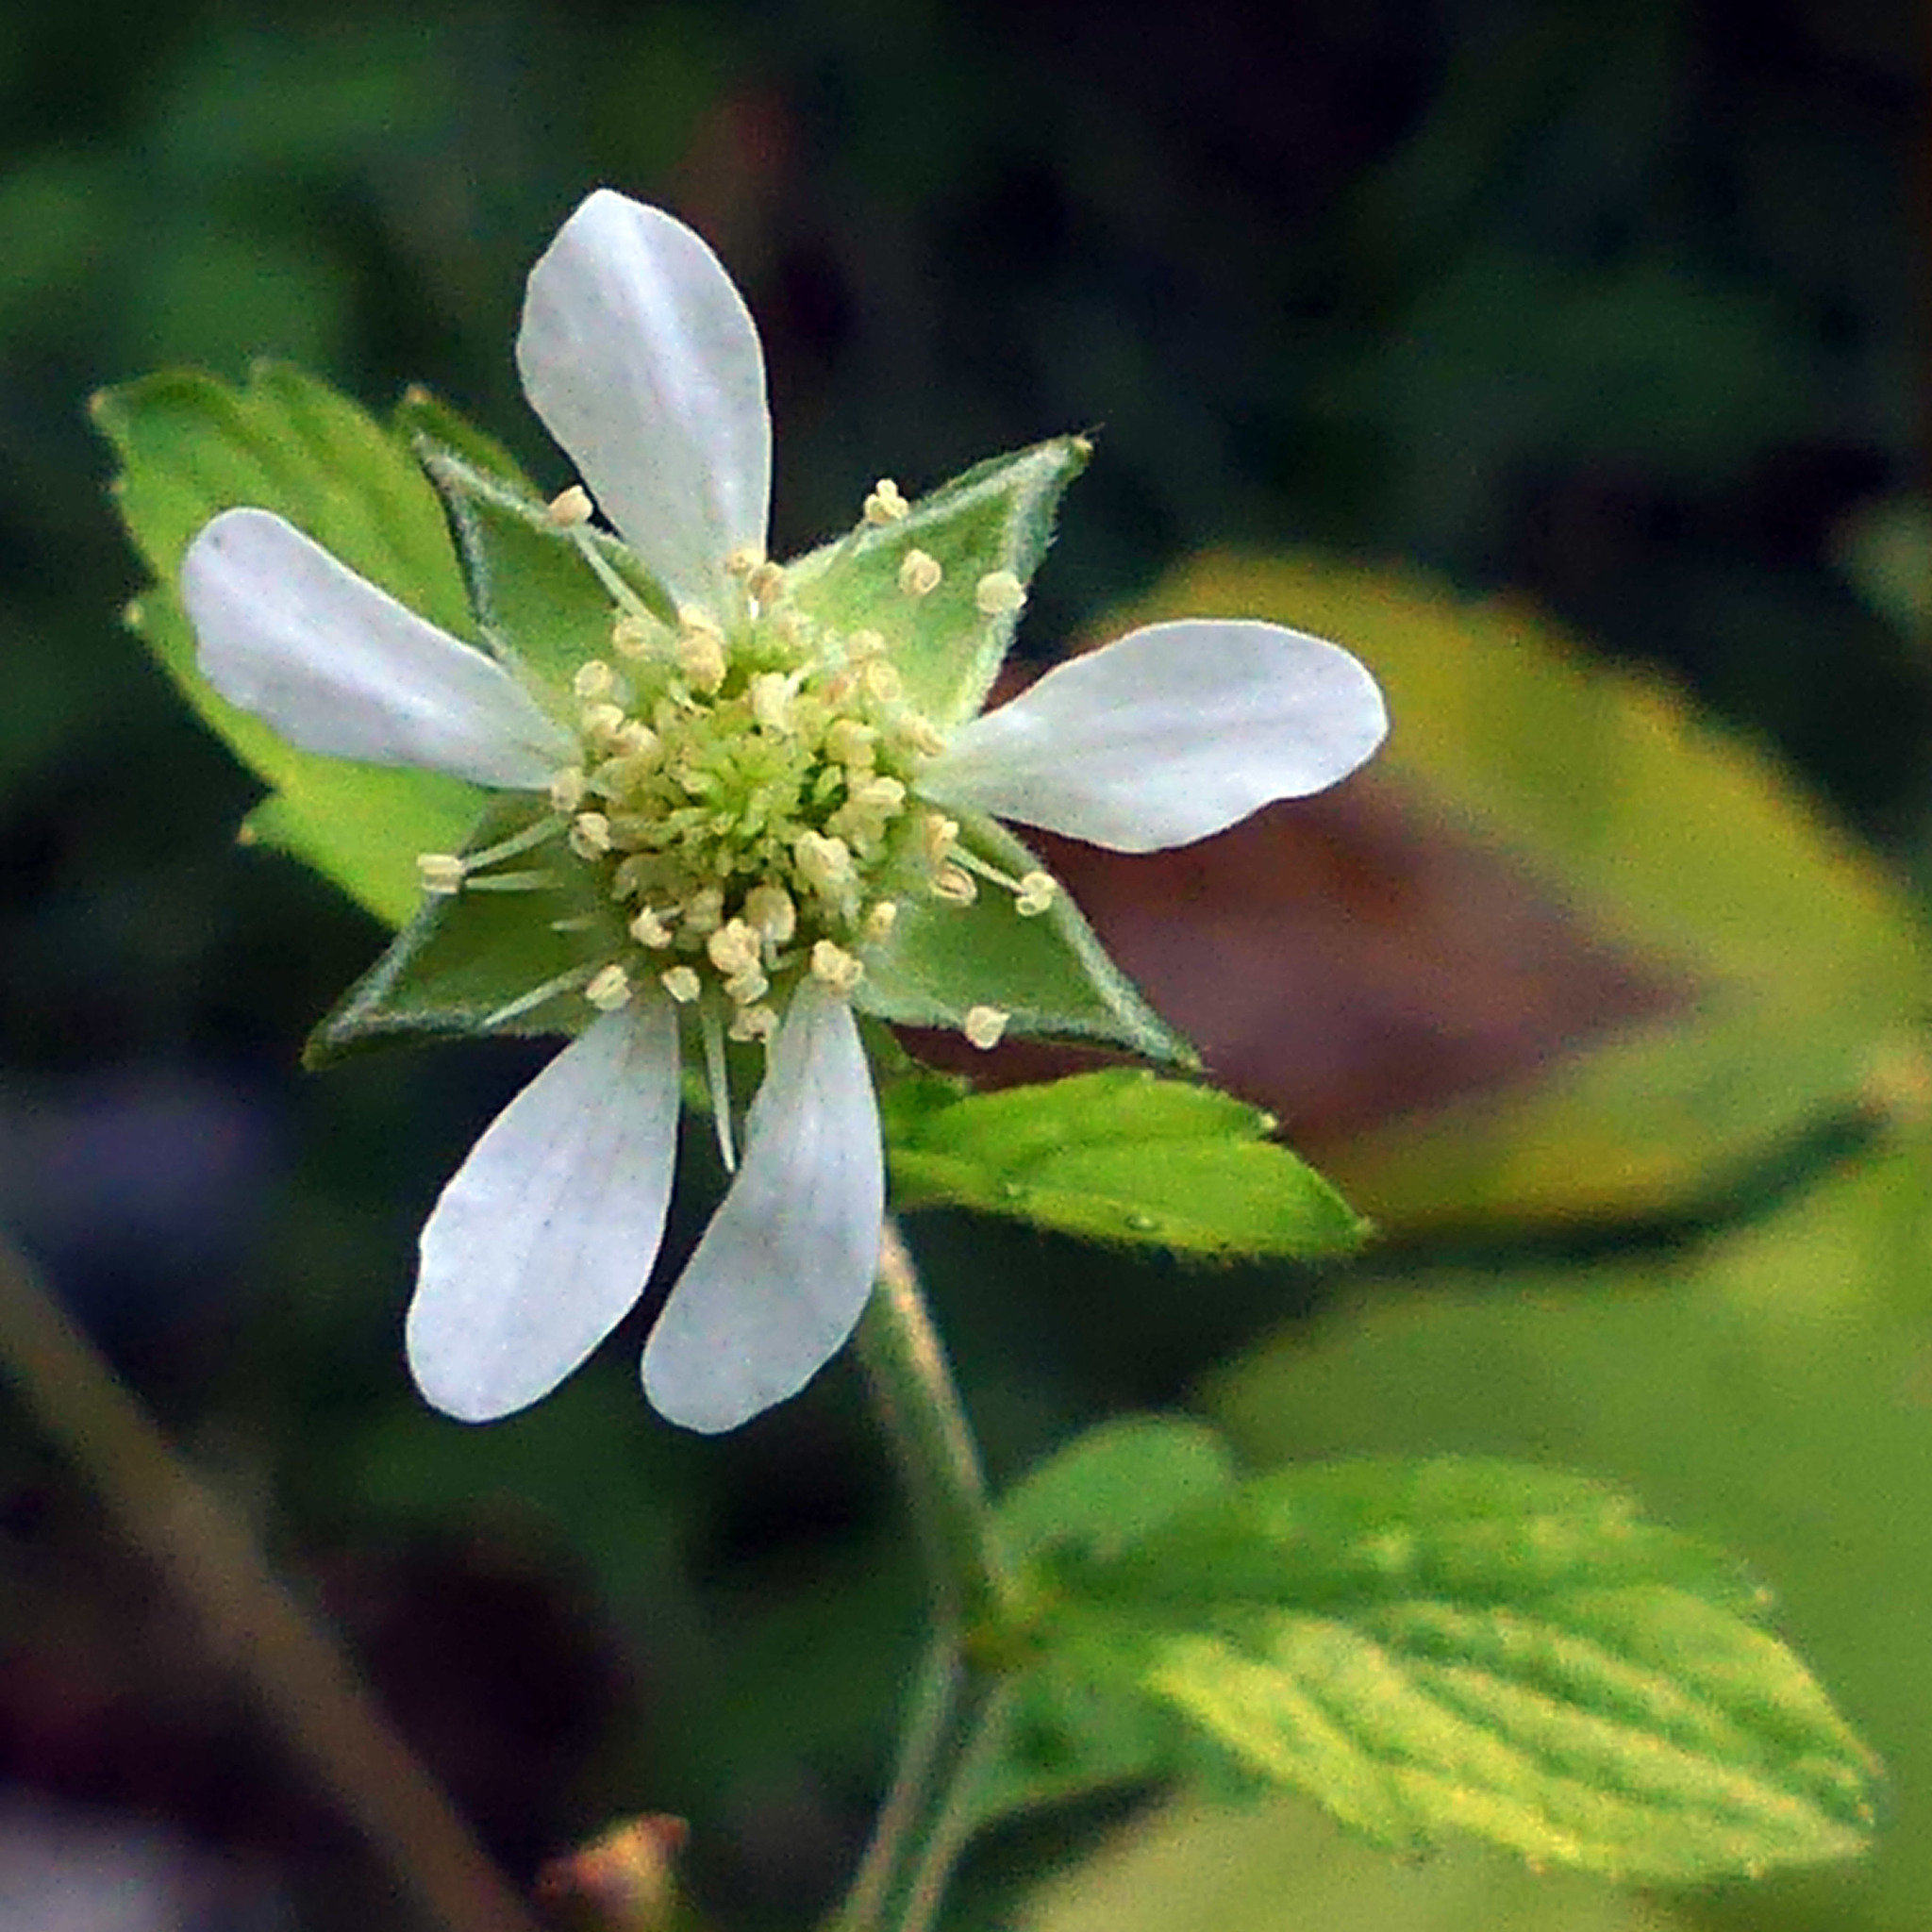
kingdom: Plantae
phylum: Tracheophyta
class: Magnoliopsida
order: Rosales
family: Rosaceae
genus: Geum
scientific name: Geum canadense
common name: White avens
